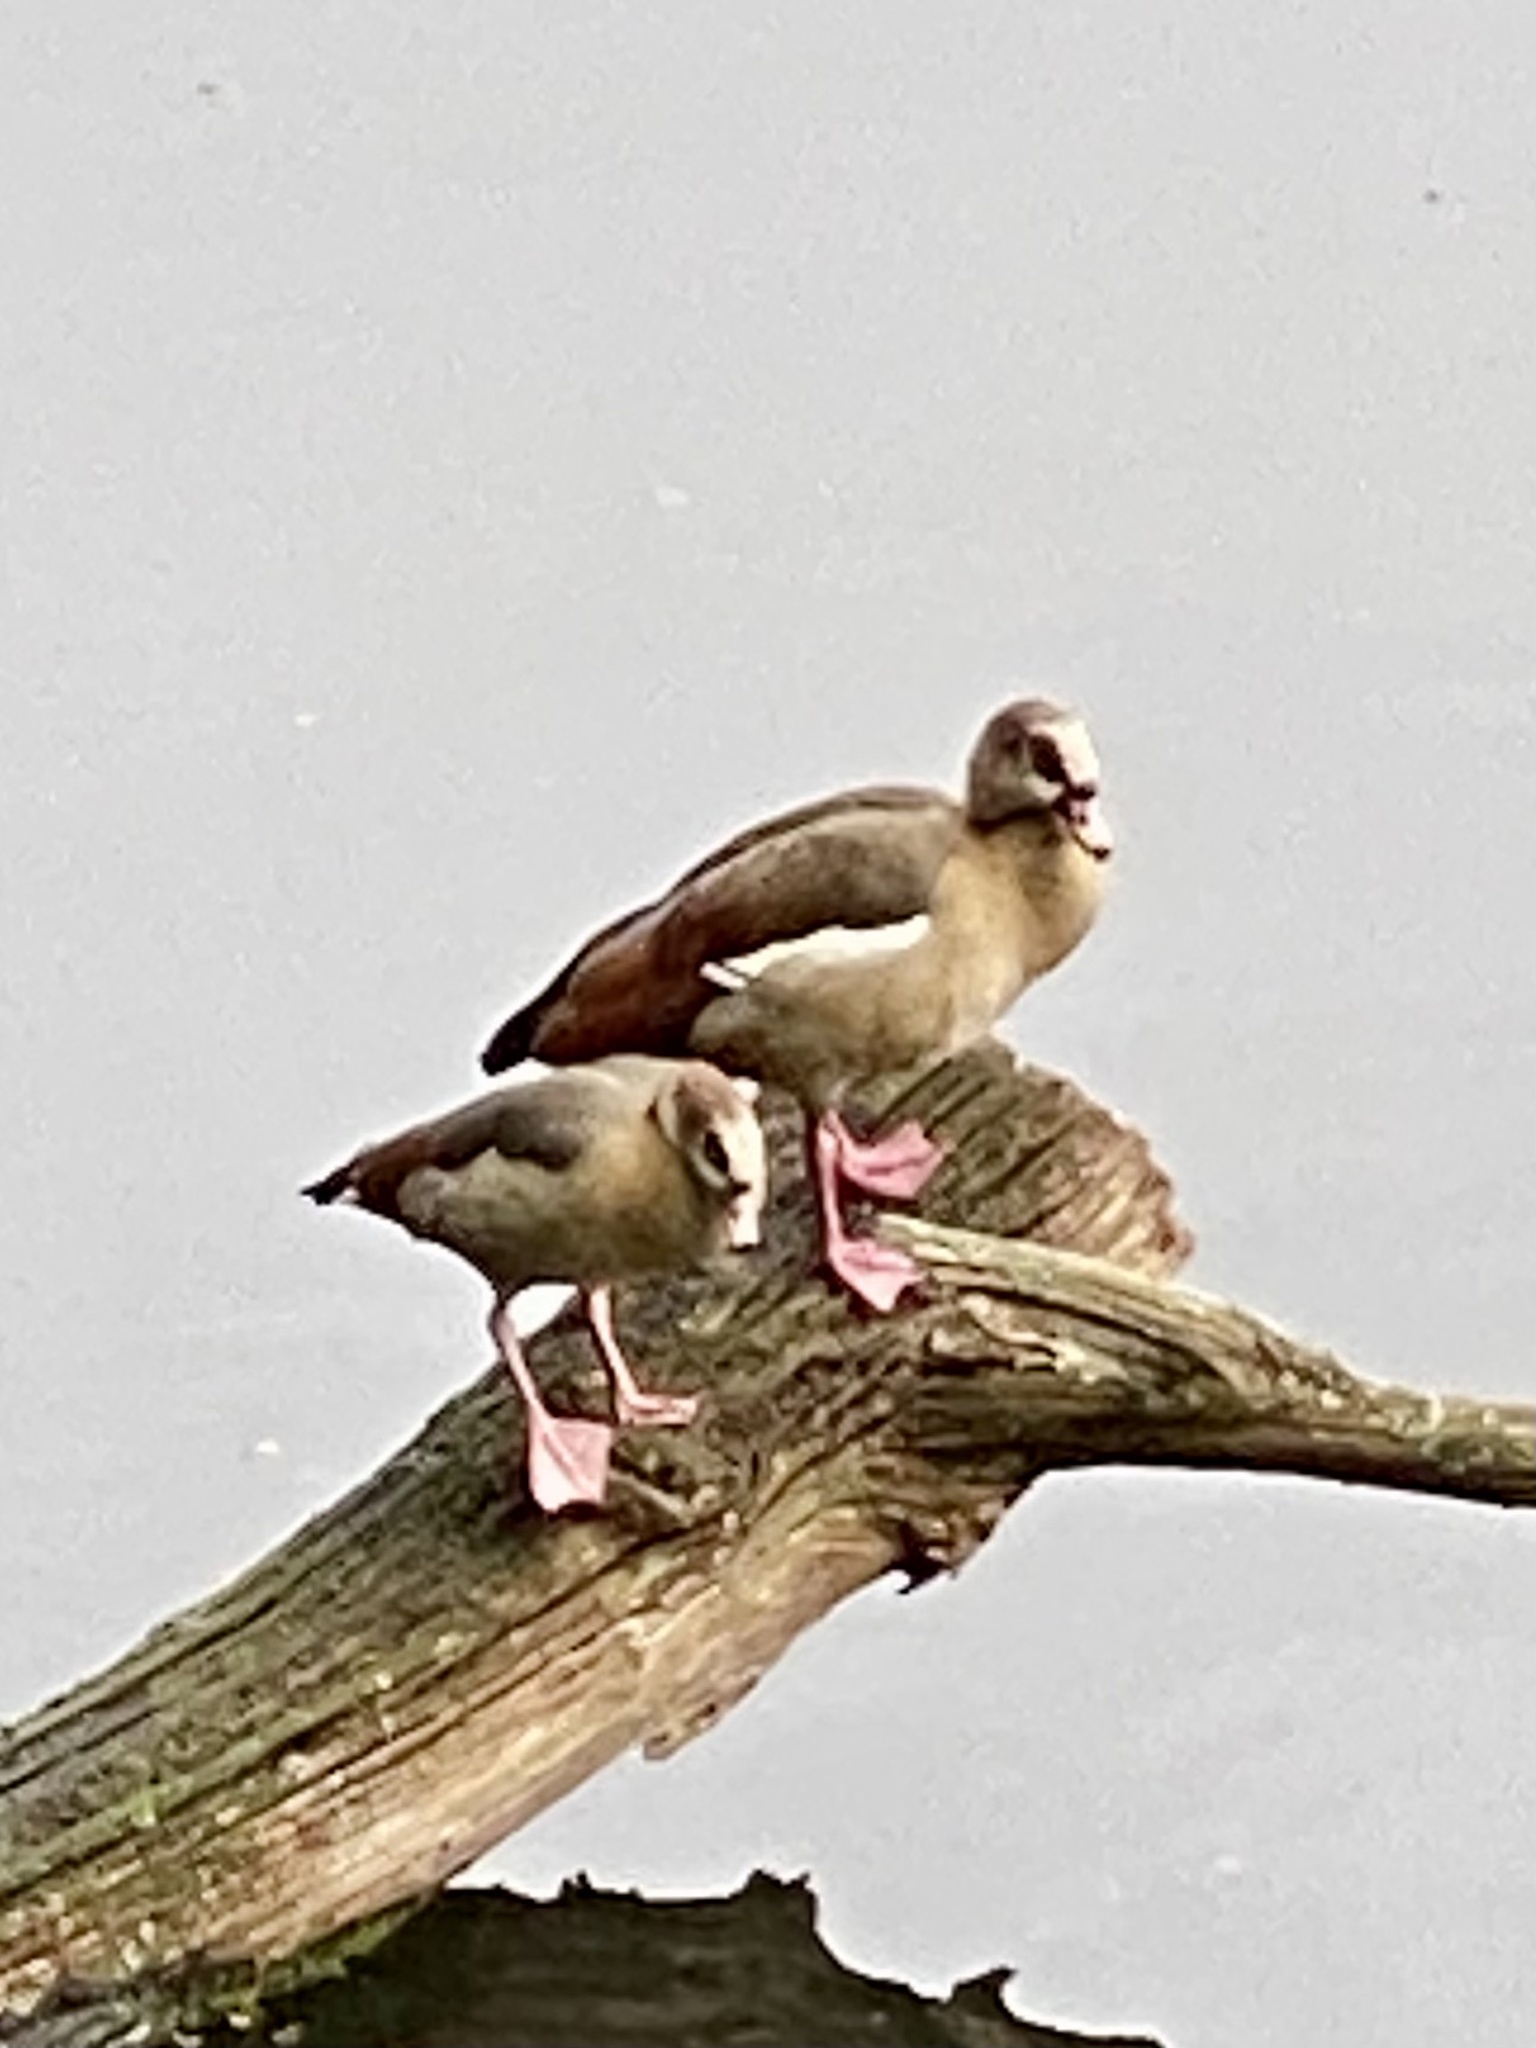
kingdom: Animalia
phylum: Chordata
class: Aves
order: Anseriformes
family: Anatidae
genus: Alopochen
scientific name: Alopochen aegyptiaca
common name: Egyptian goose
